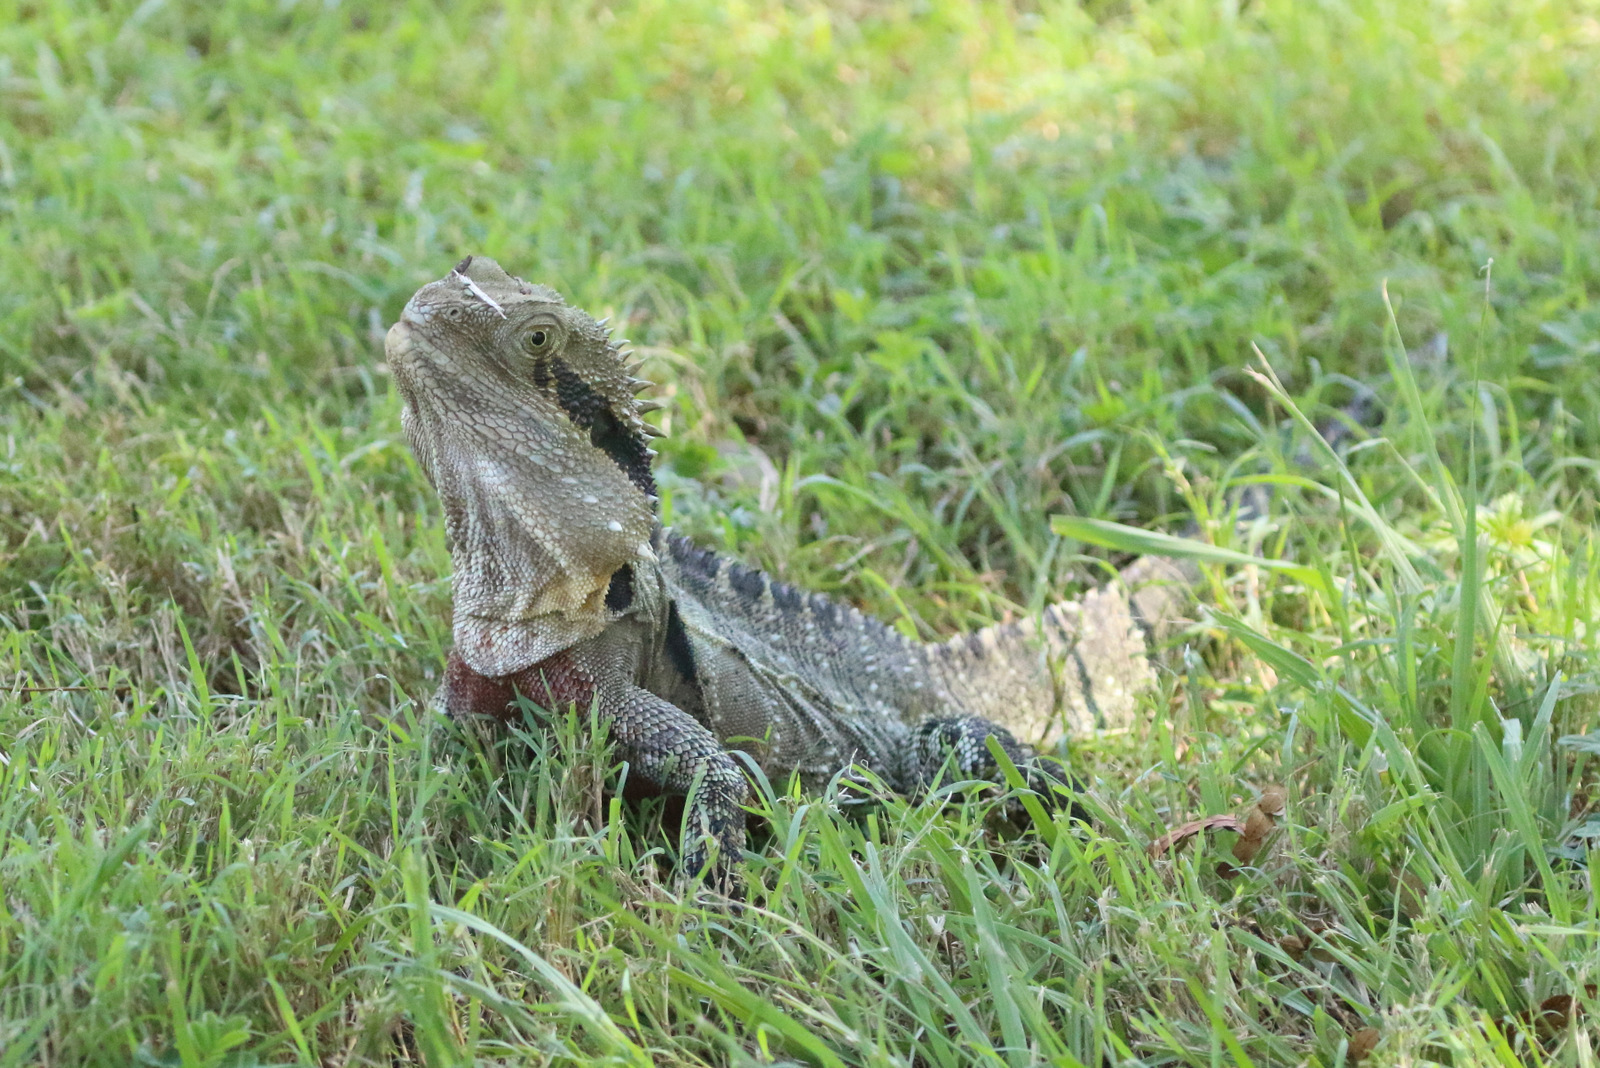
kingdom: Animalia
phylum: Chordata
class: Squamata
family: Agamidae
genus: Intellagama
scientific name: Intellagama lesueurii
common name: Eastern water dragon
